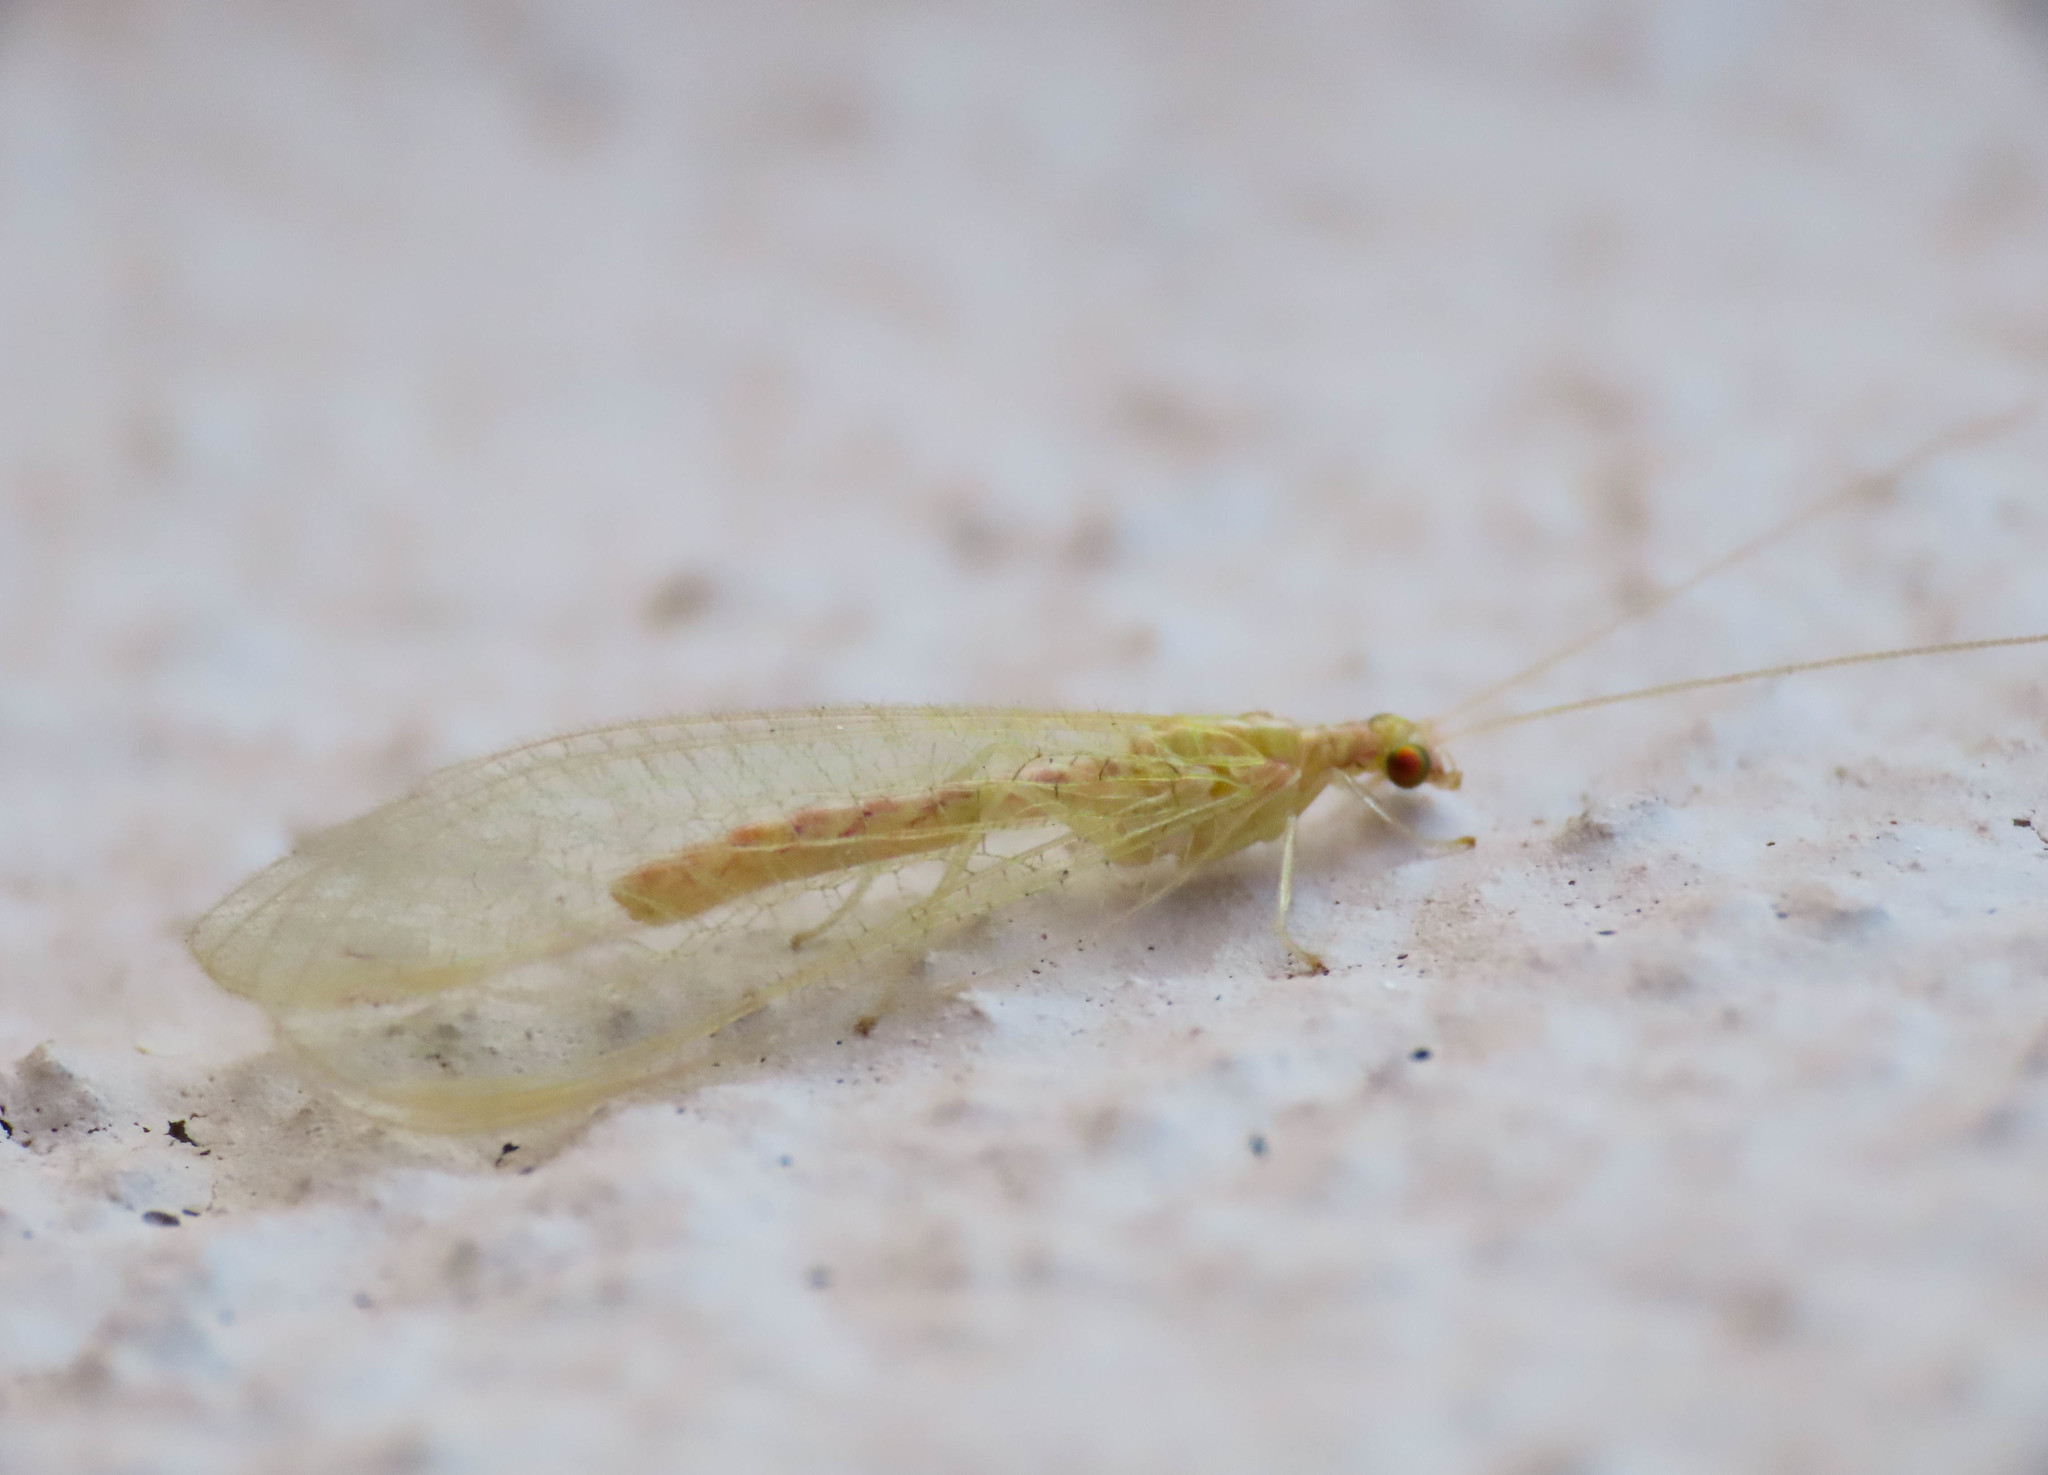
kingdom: Animalia
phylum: Arthropoda
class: Insecta
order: Neuroptera
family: Chrysopidae
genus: Chrysoperla
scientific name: Chrysoperla
